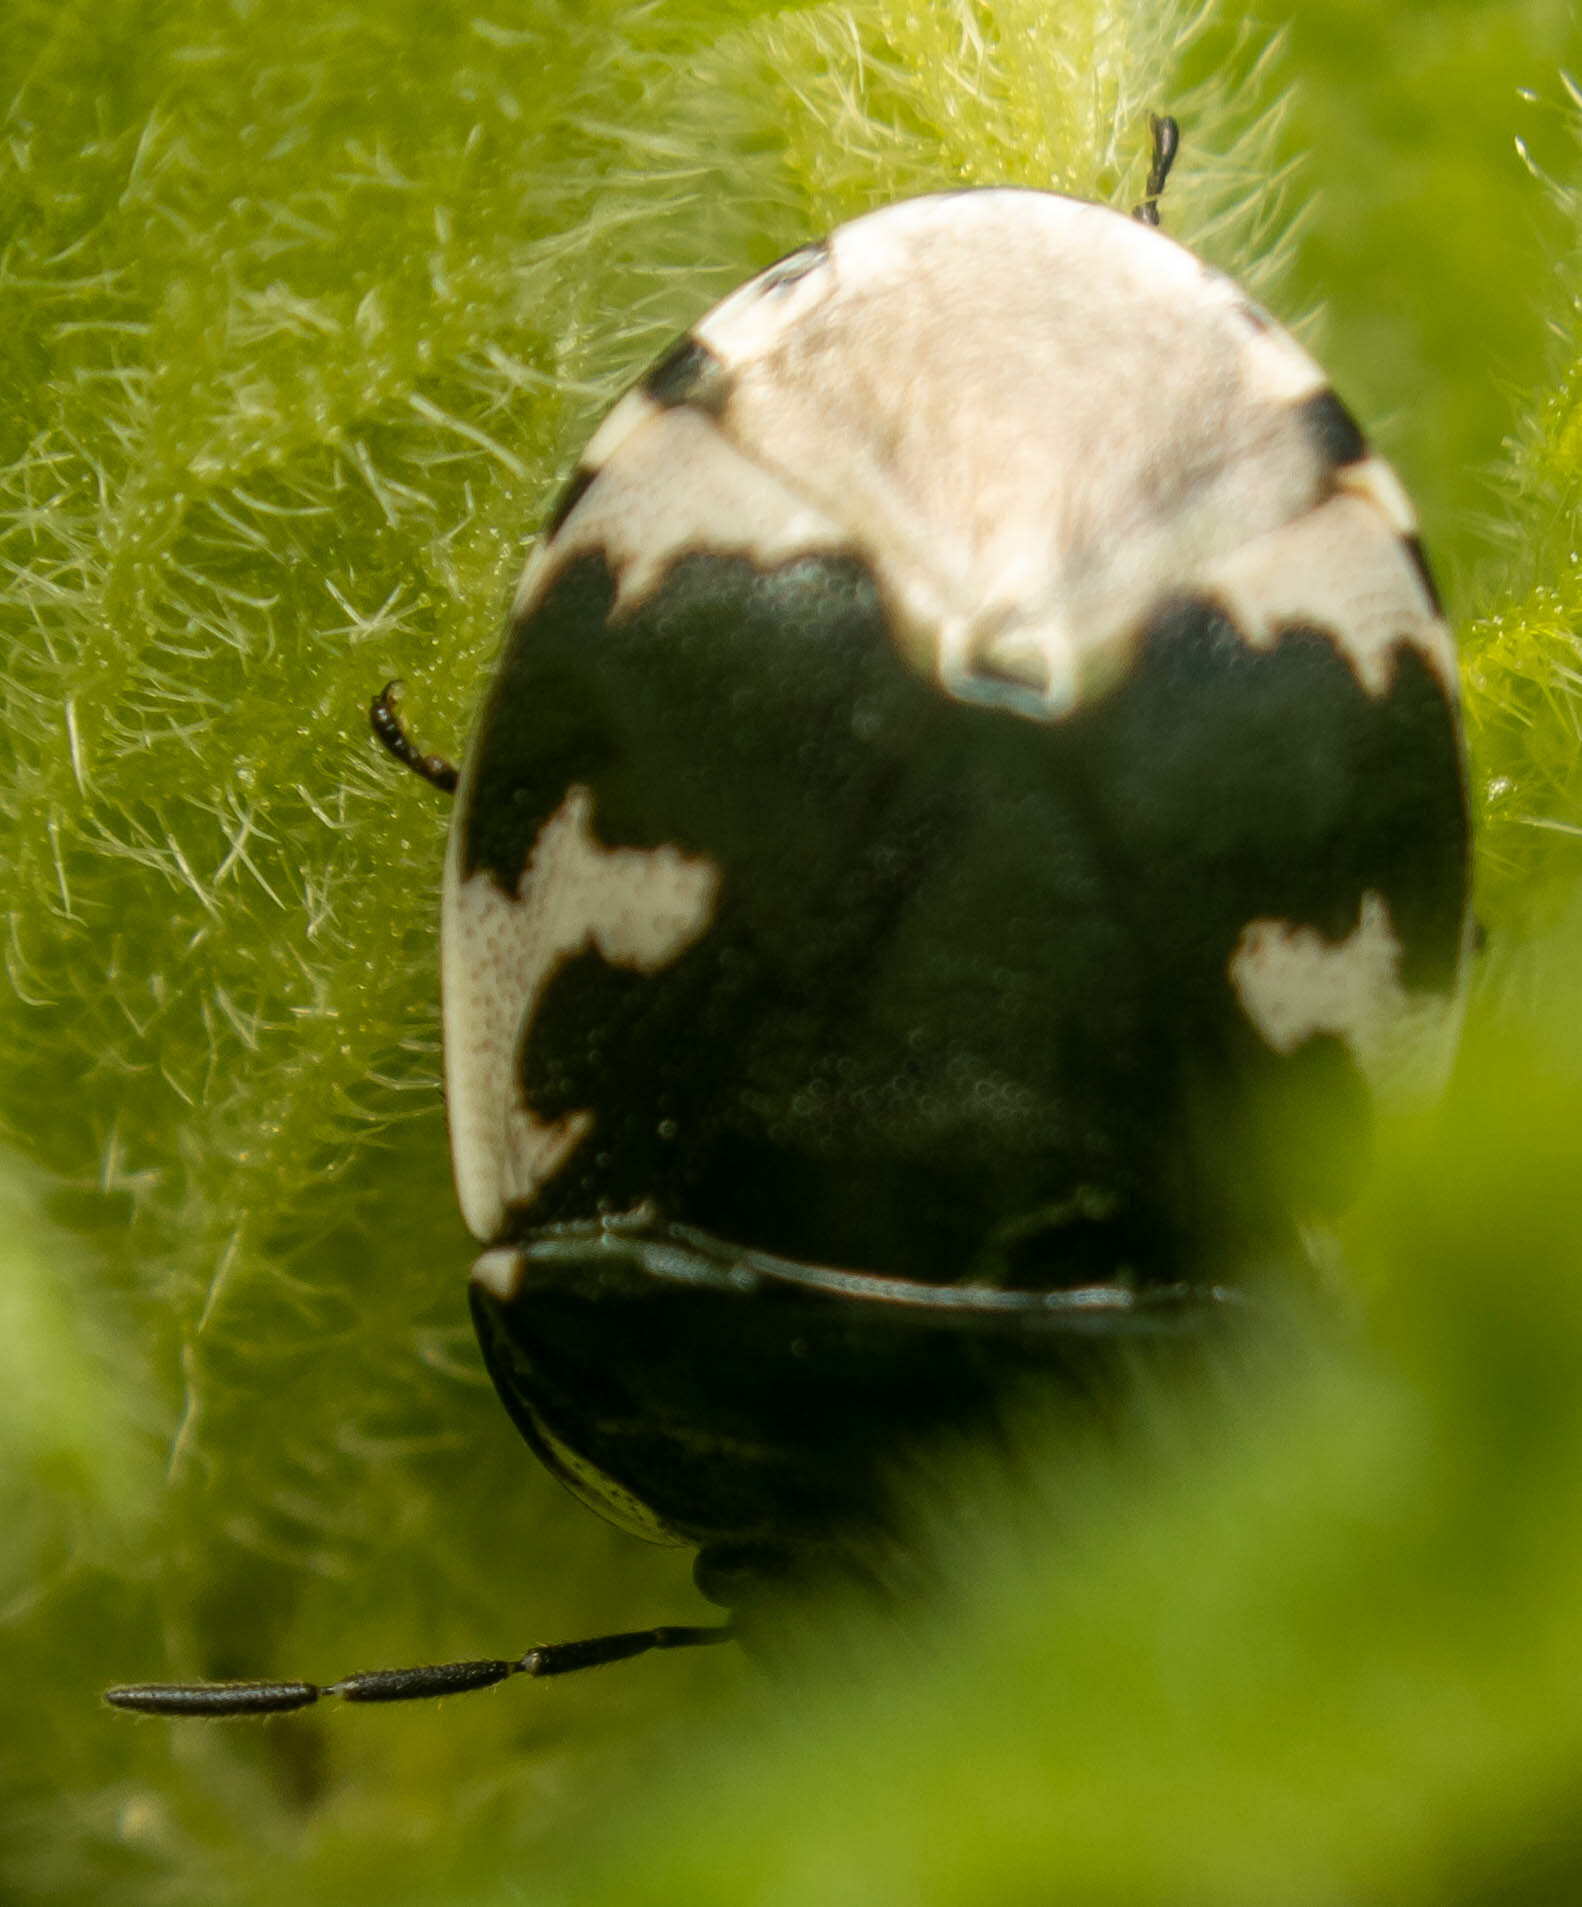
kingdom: Animalia
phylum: Arthropoda
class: Insecta
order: Hemiptera
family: Cydnidae
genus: Tritomegas
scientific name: Tritomegas bicolor
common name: Pied shieldbug
